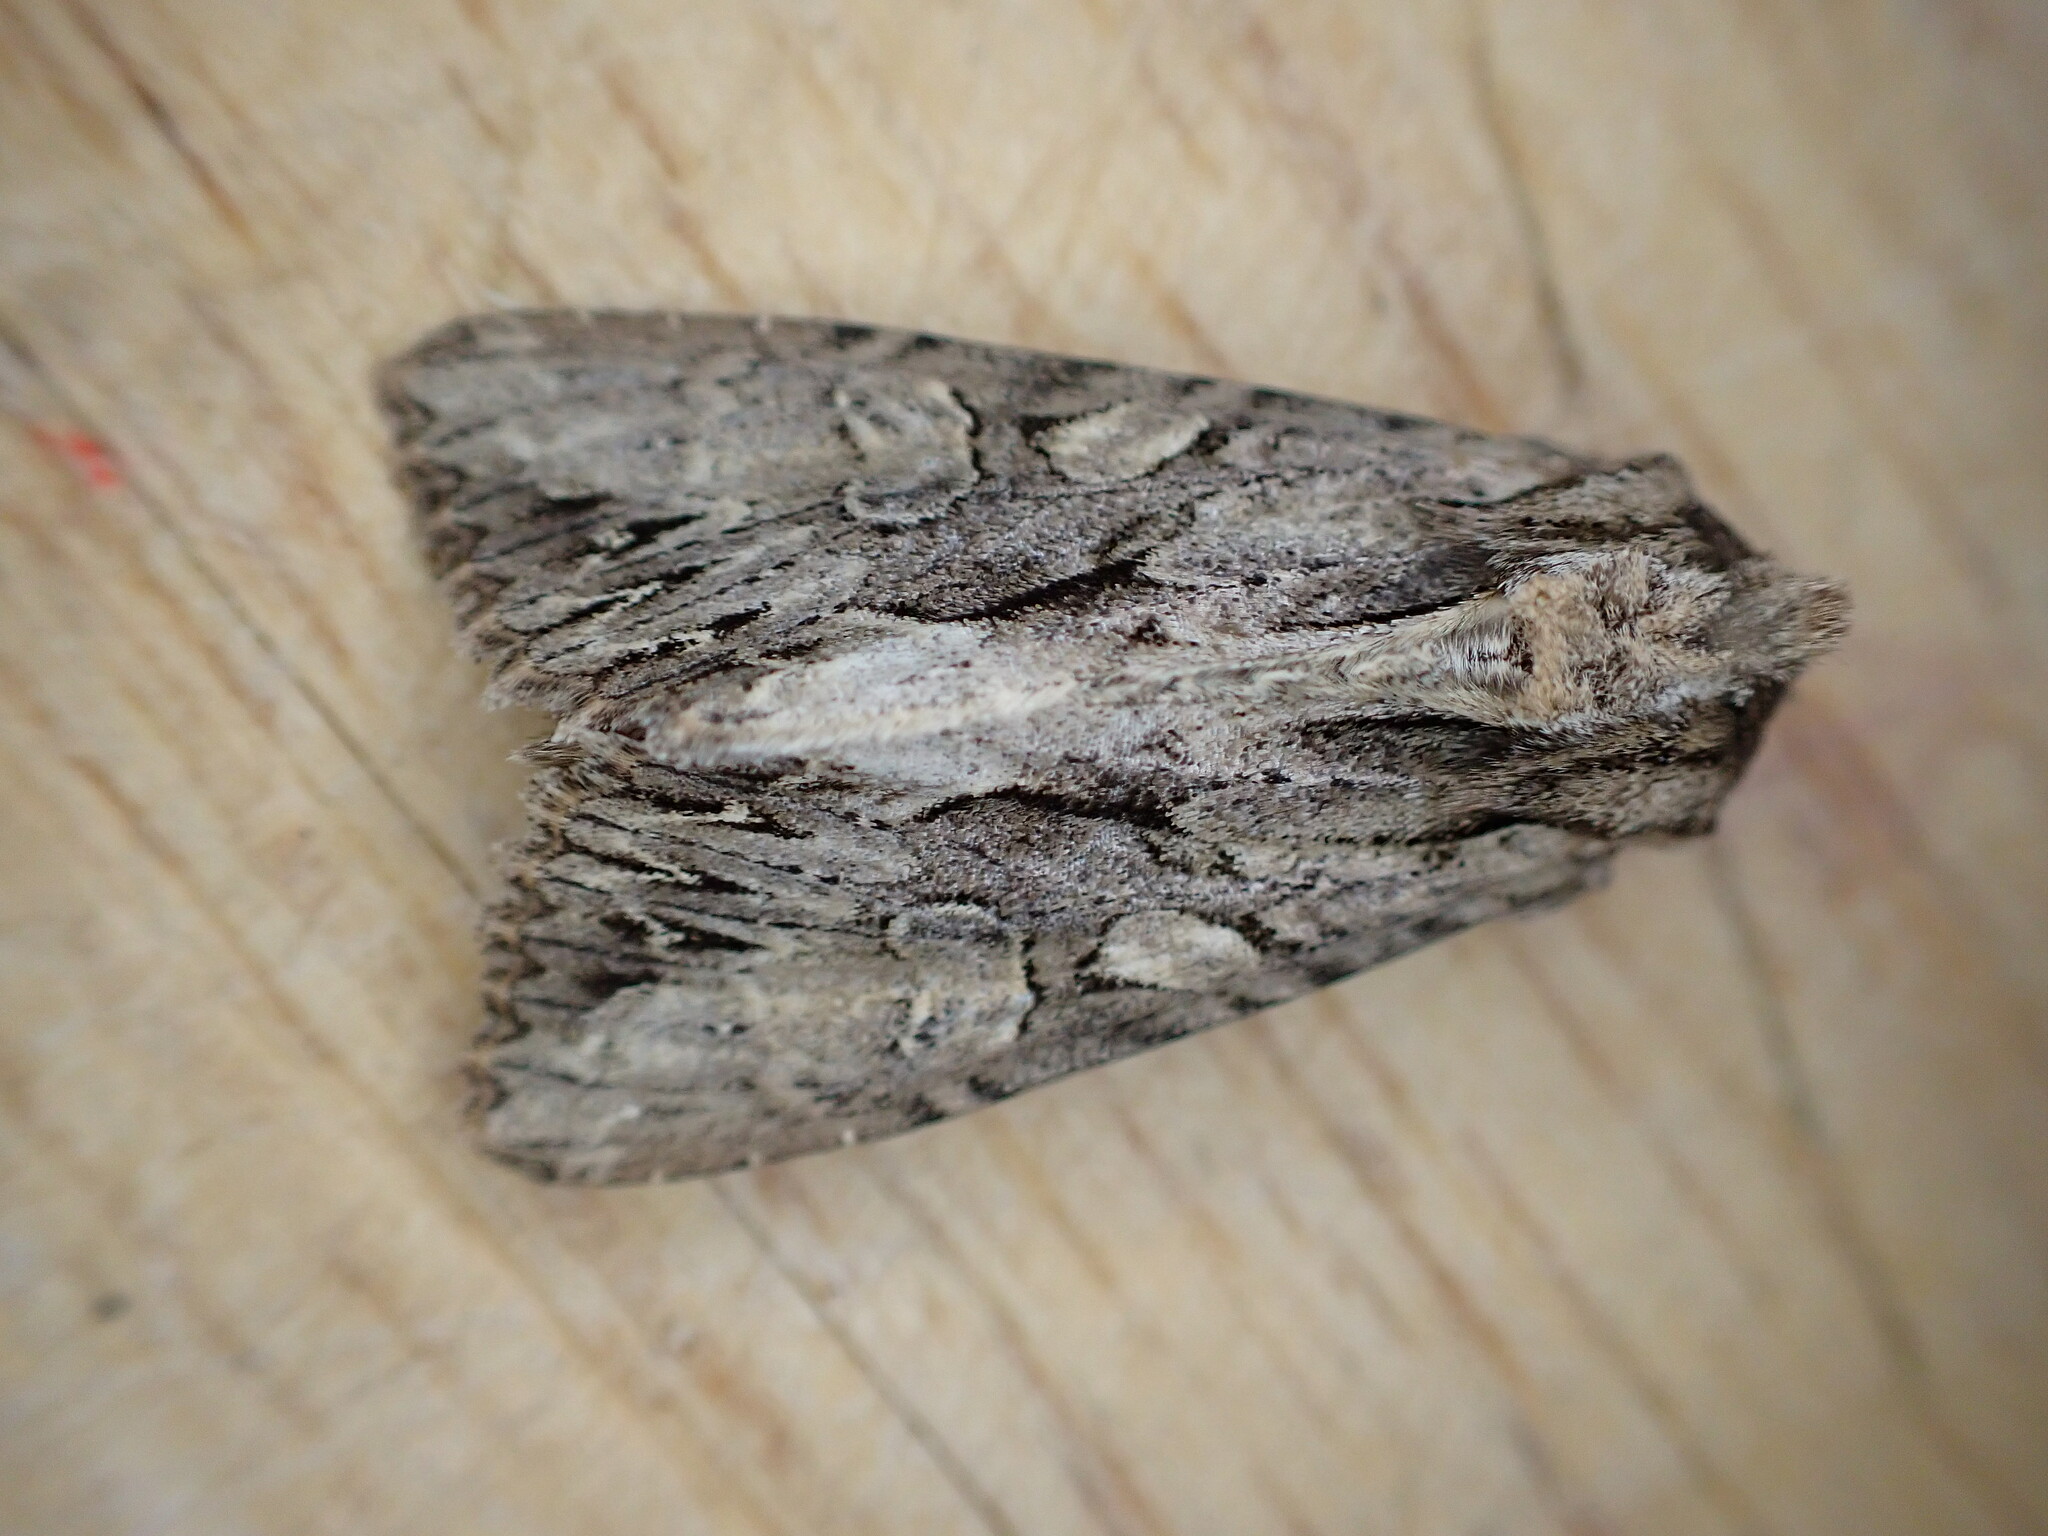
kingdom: Animalia
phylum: Arthropoda
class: Insecta
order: Lepidoptera
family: Noctuidae
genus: Apamea
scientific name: Apamea monoglypha
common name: Dark arches
